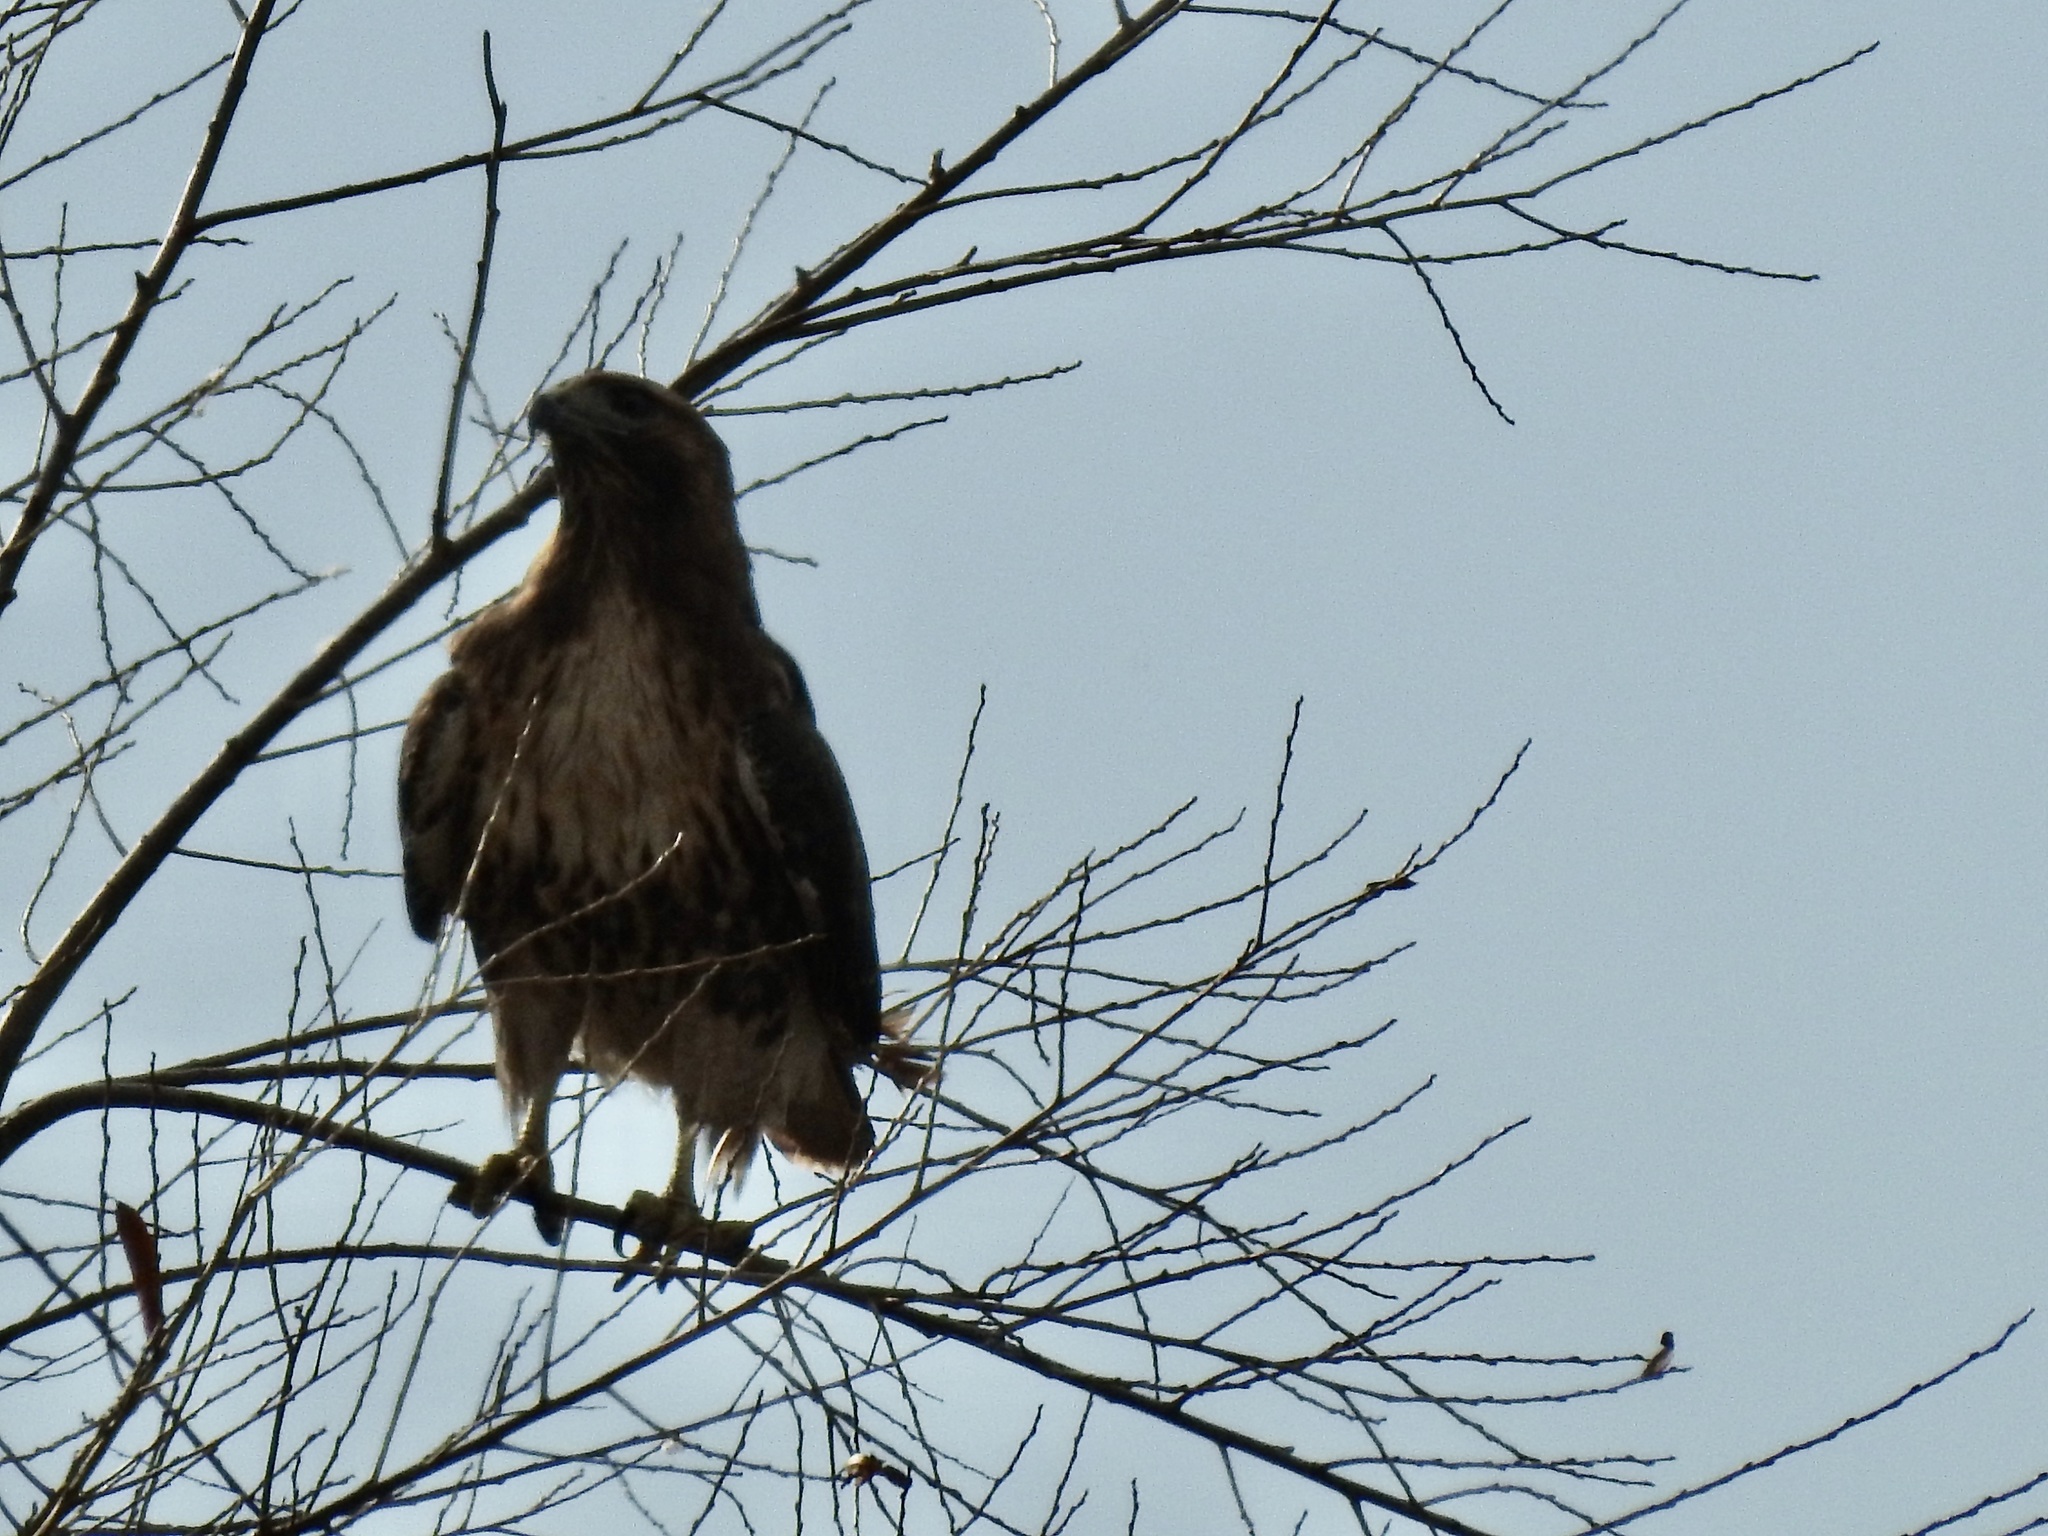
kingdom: Animalia
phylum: Chordata
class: Aves
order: Accipitriformes
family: Accipitridae
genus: Buteo
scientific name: Buteo jamaicensis
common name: Red-tailed hawk
